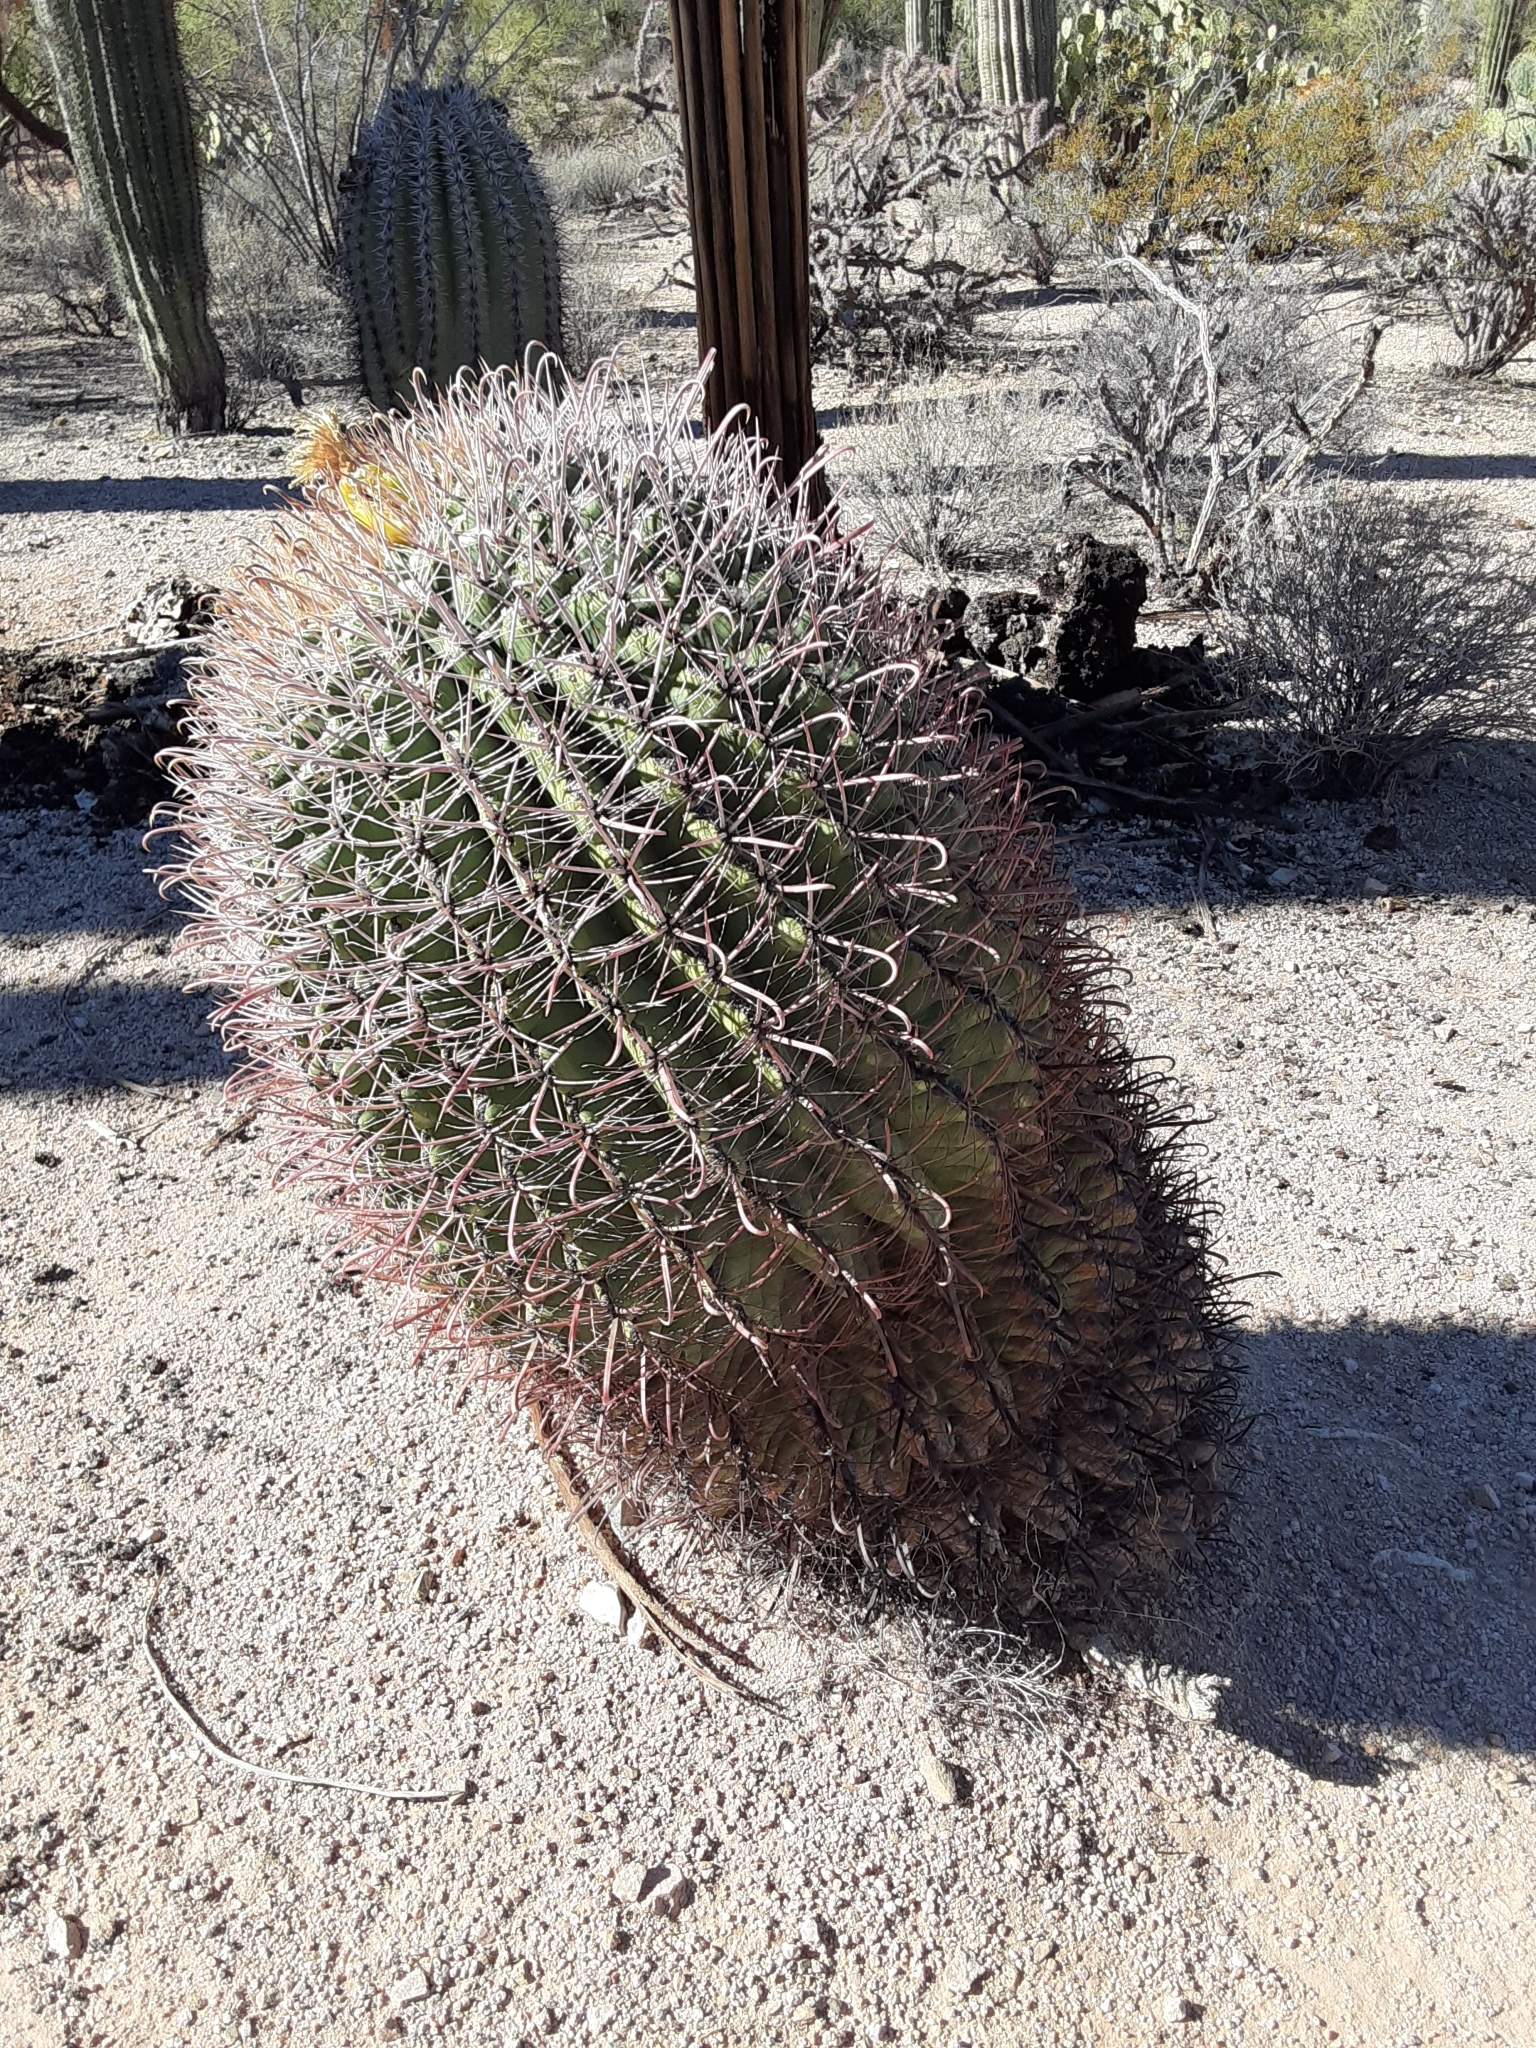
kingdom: Plantae
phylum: Tracheophyta
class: Magnoliopsida
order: Caryophyllales
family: Cactaceae
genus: Ferocactus
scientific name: Ferocactus wislizeni
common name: Candy barrel cactus
